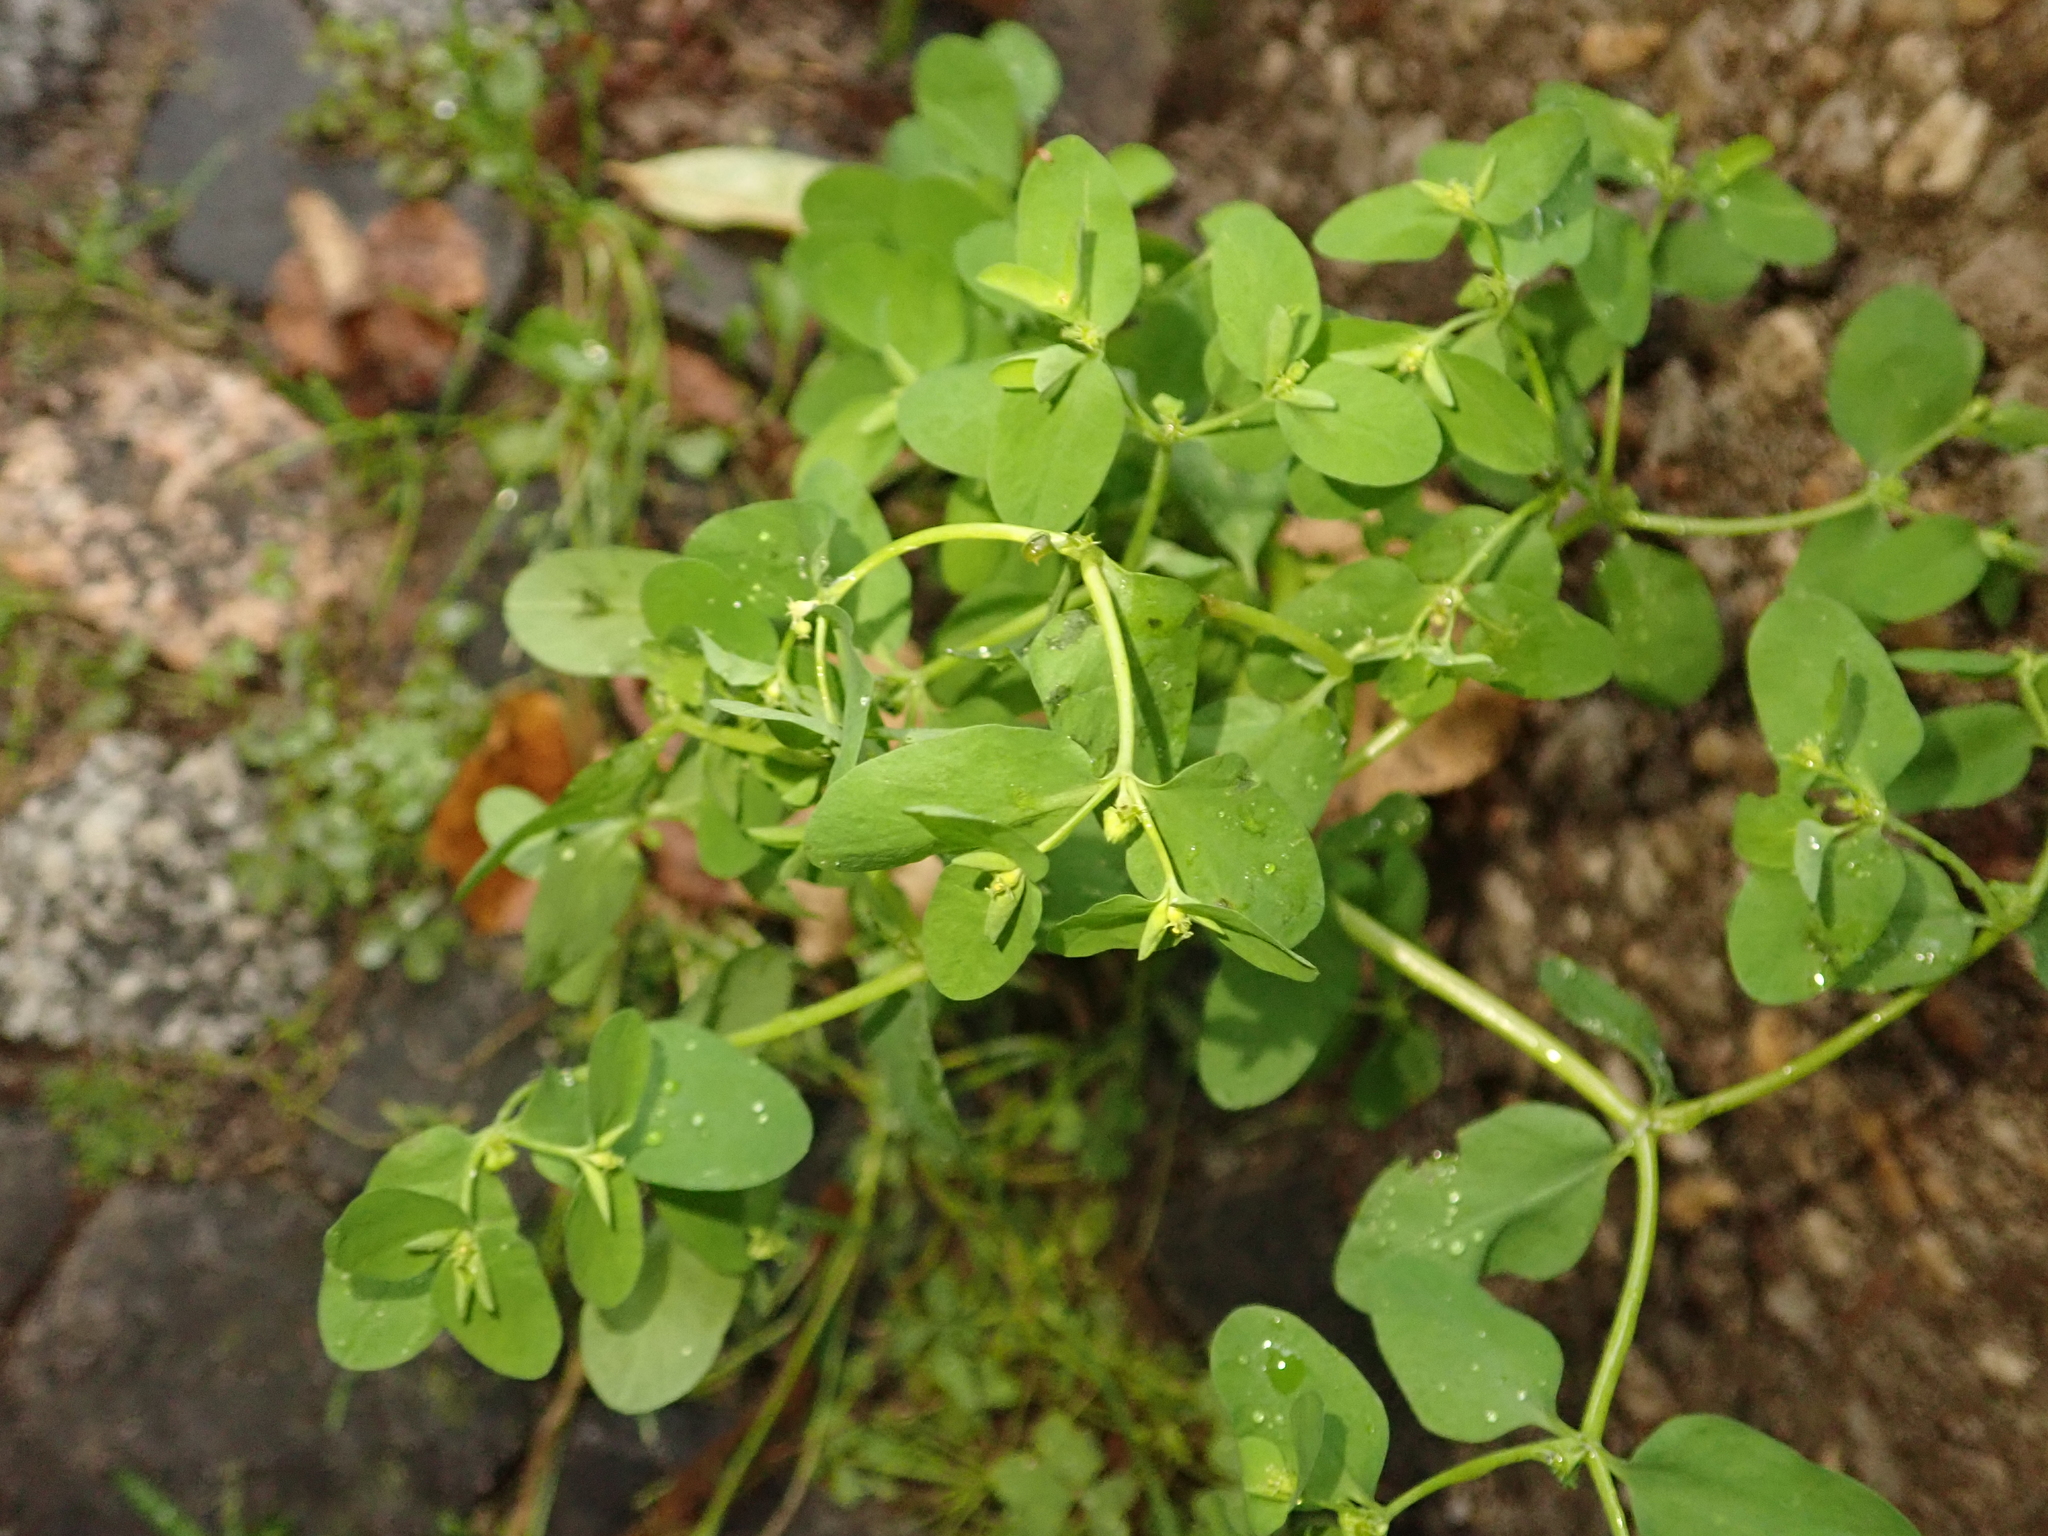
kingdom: Plantae
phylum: Tracheophyta
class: Magnoliopsida
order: Malpighiales
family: Euphorbiaceae
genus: Euphorbia
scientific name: Euphorbia peplus
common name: Petty spurge
